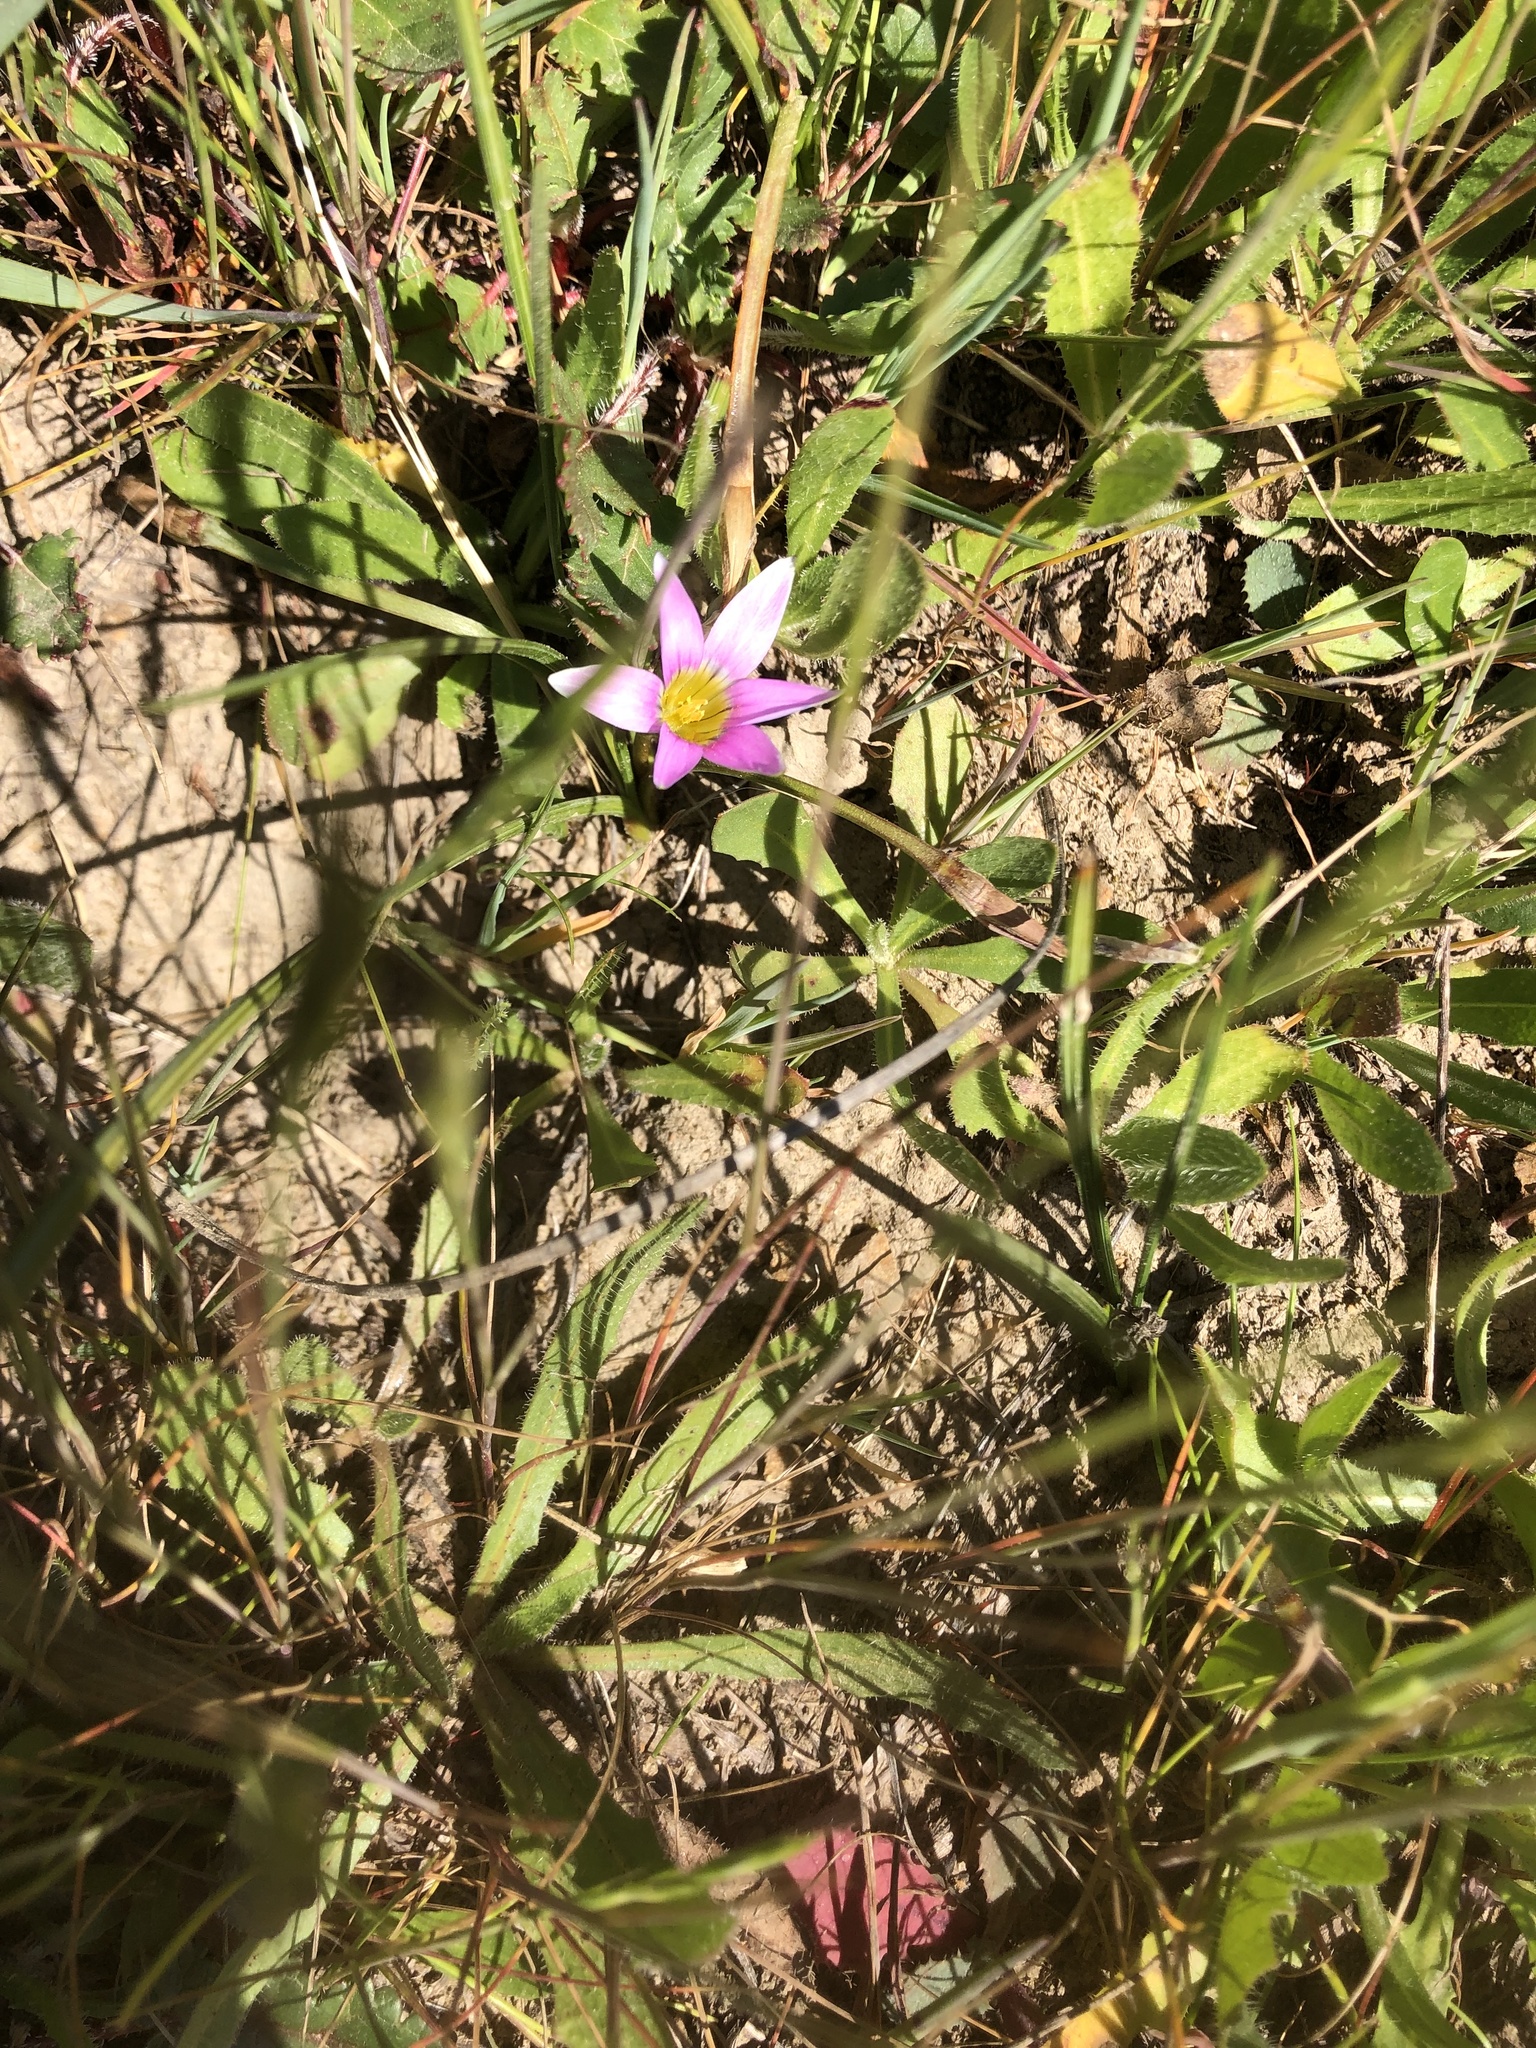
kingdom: Plantae
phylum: Tracheophyta
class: Liliopsida
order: Asparagales
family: Iridaceae
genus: Romulea
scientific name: Romulea rosea
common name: Oniongrass
